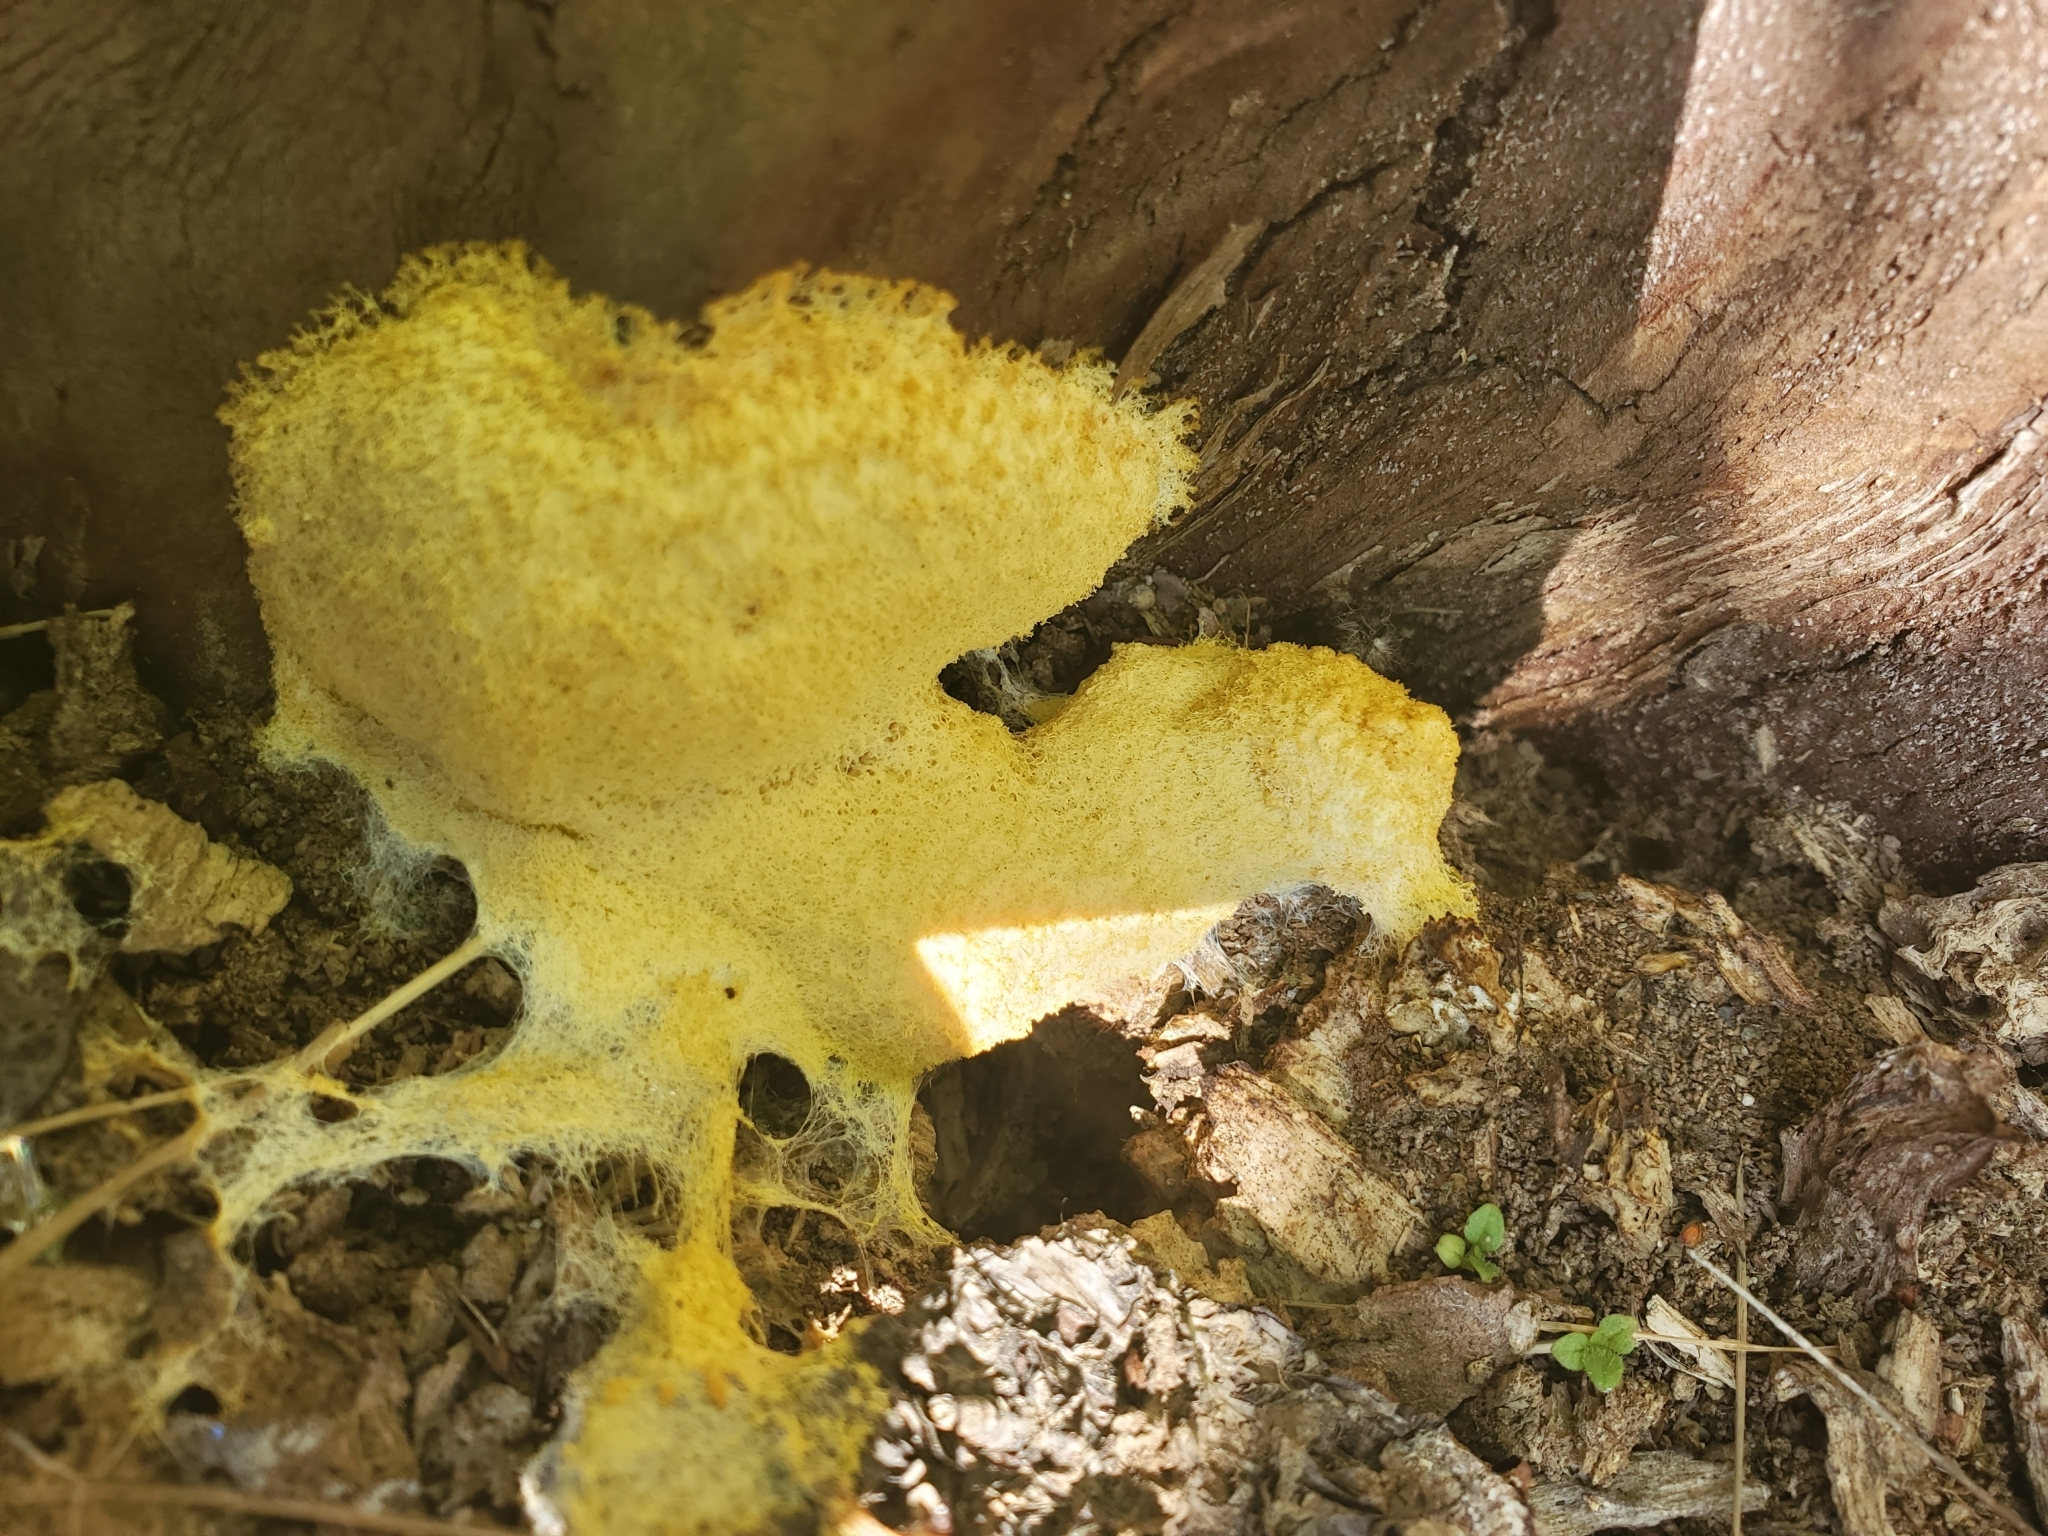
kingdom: Protozoa
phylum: Mycetozoa
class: Myxomycetes
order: Physarales
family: Physaraceae
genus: Fuligo
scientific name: Fuligo septica
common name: Dog vomit slime mold
